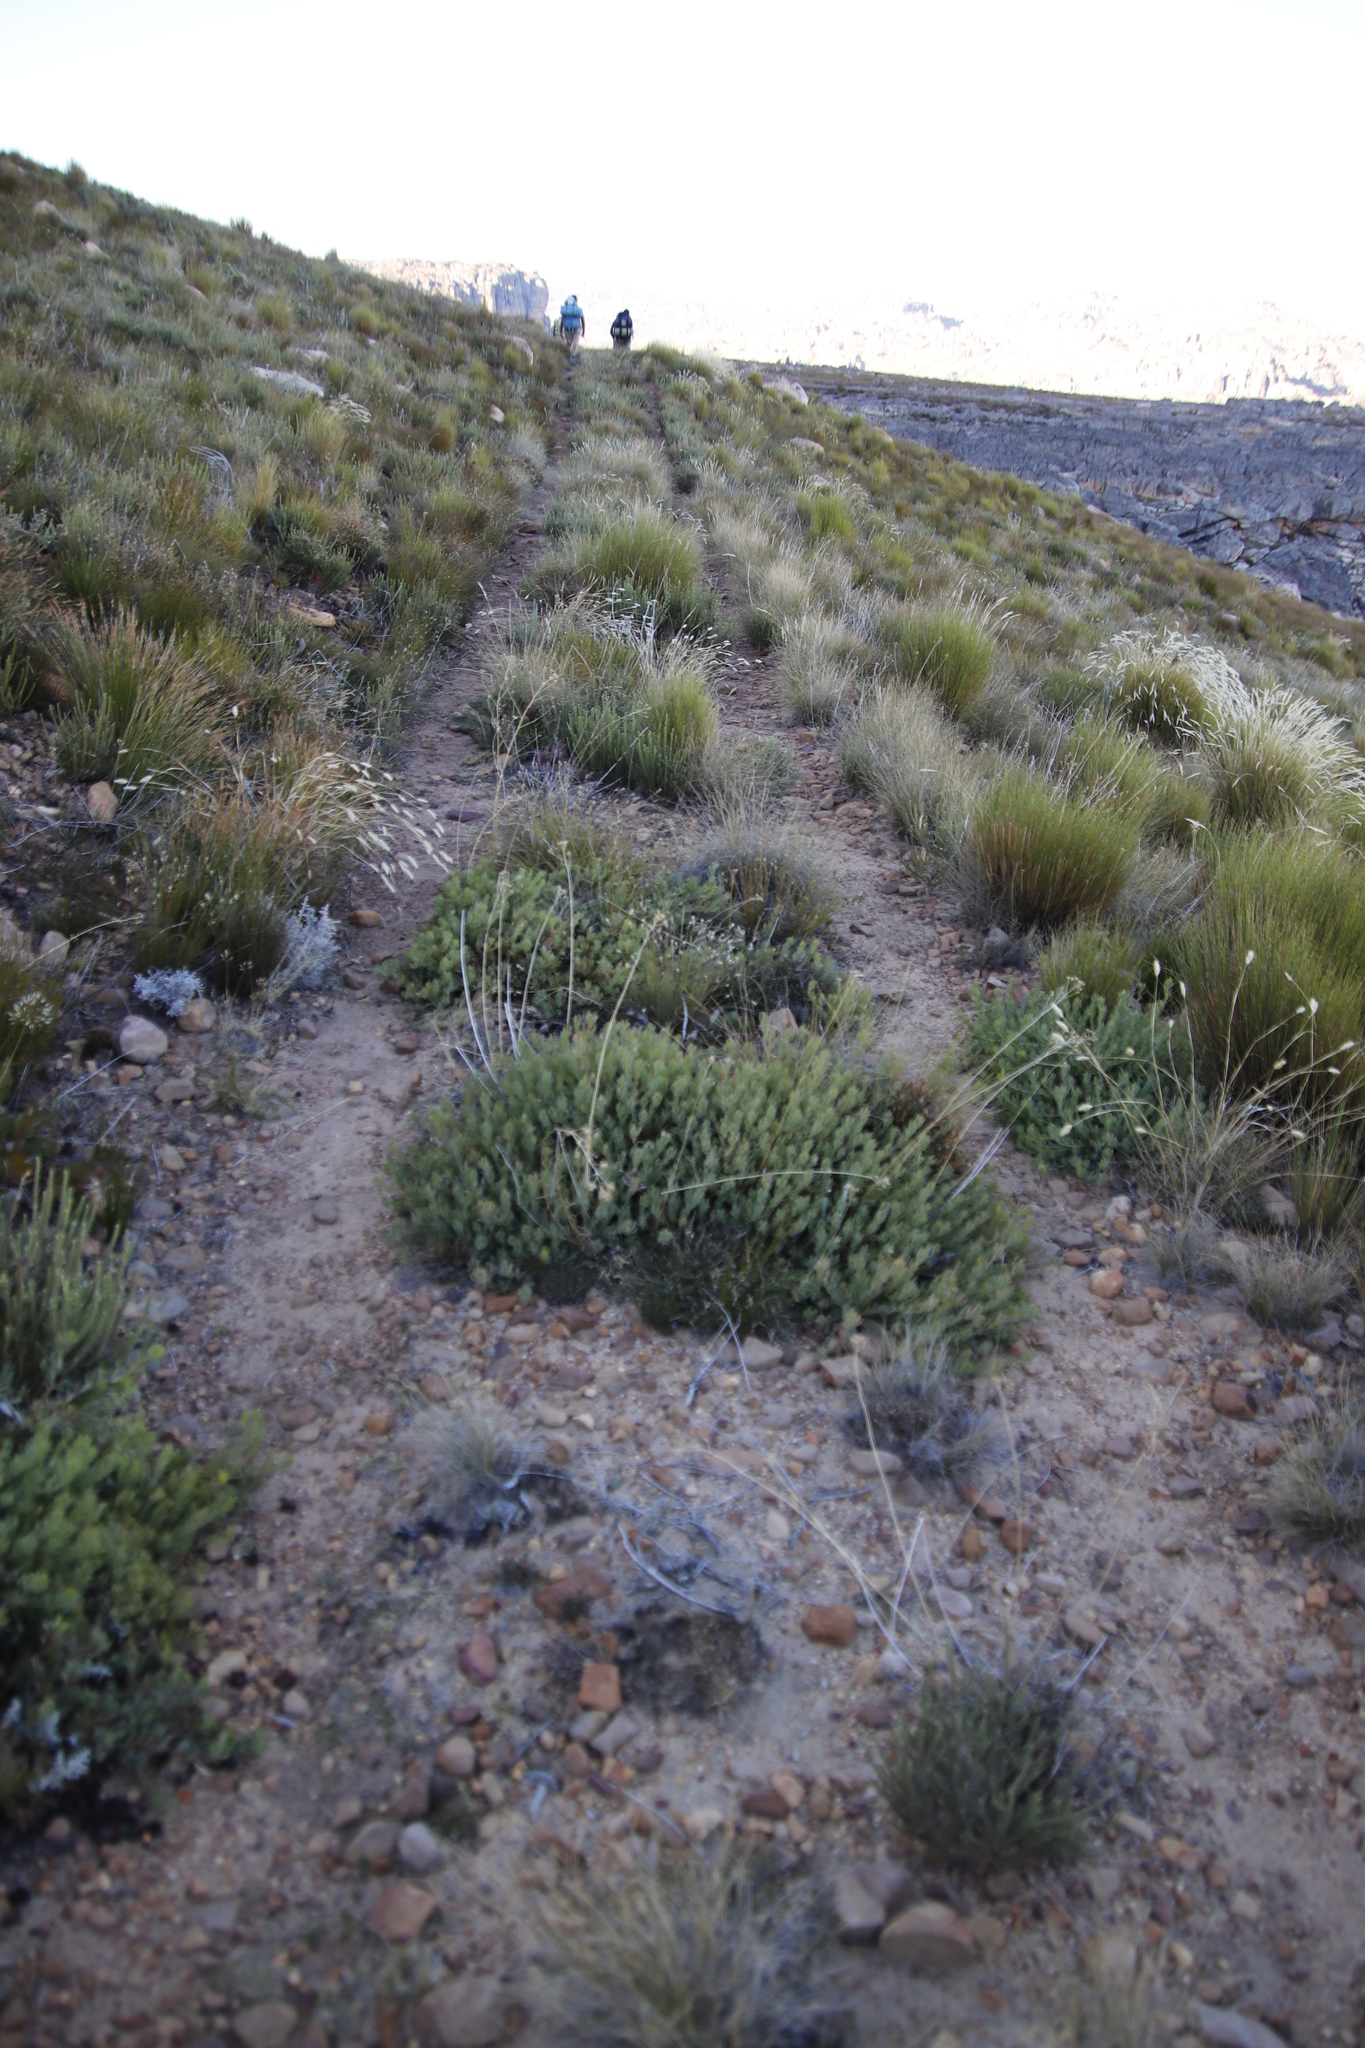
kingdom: Plantae
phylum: Tracheophyta
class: Magnoliopsida
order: Proteales
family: Proteaceae
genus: Leucadendron
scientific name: Leucadendron glaberrimum
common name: Common oily conebush
